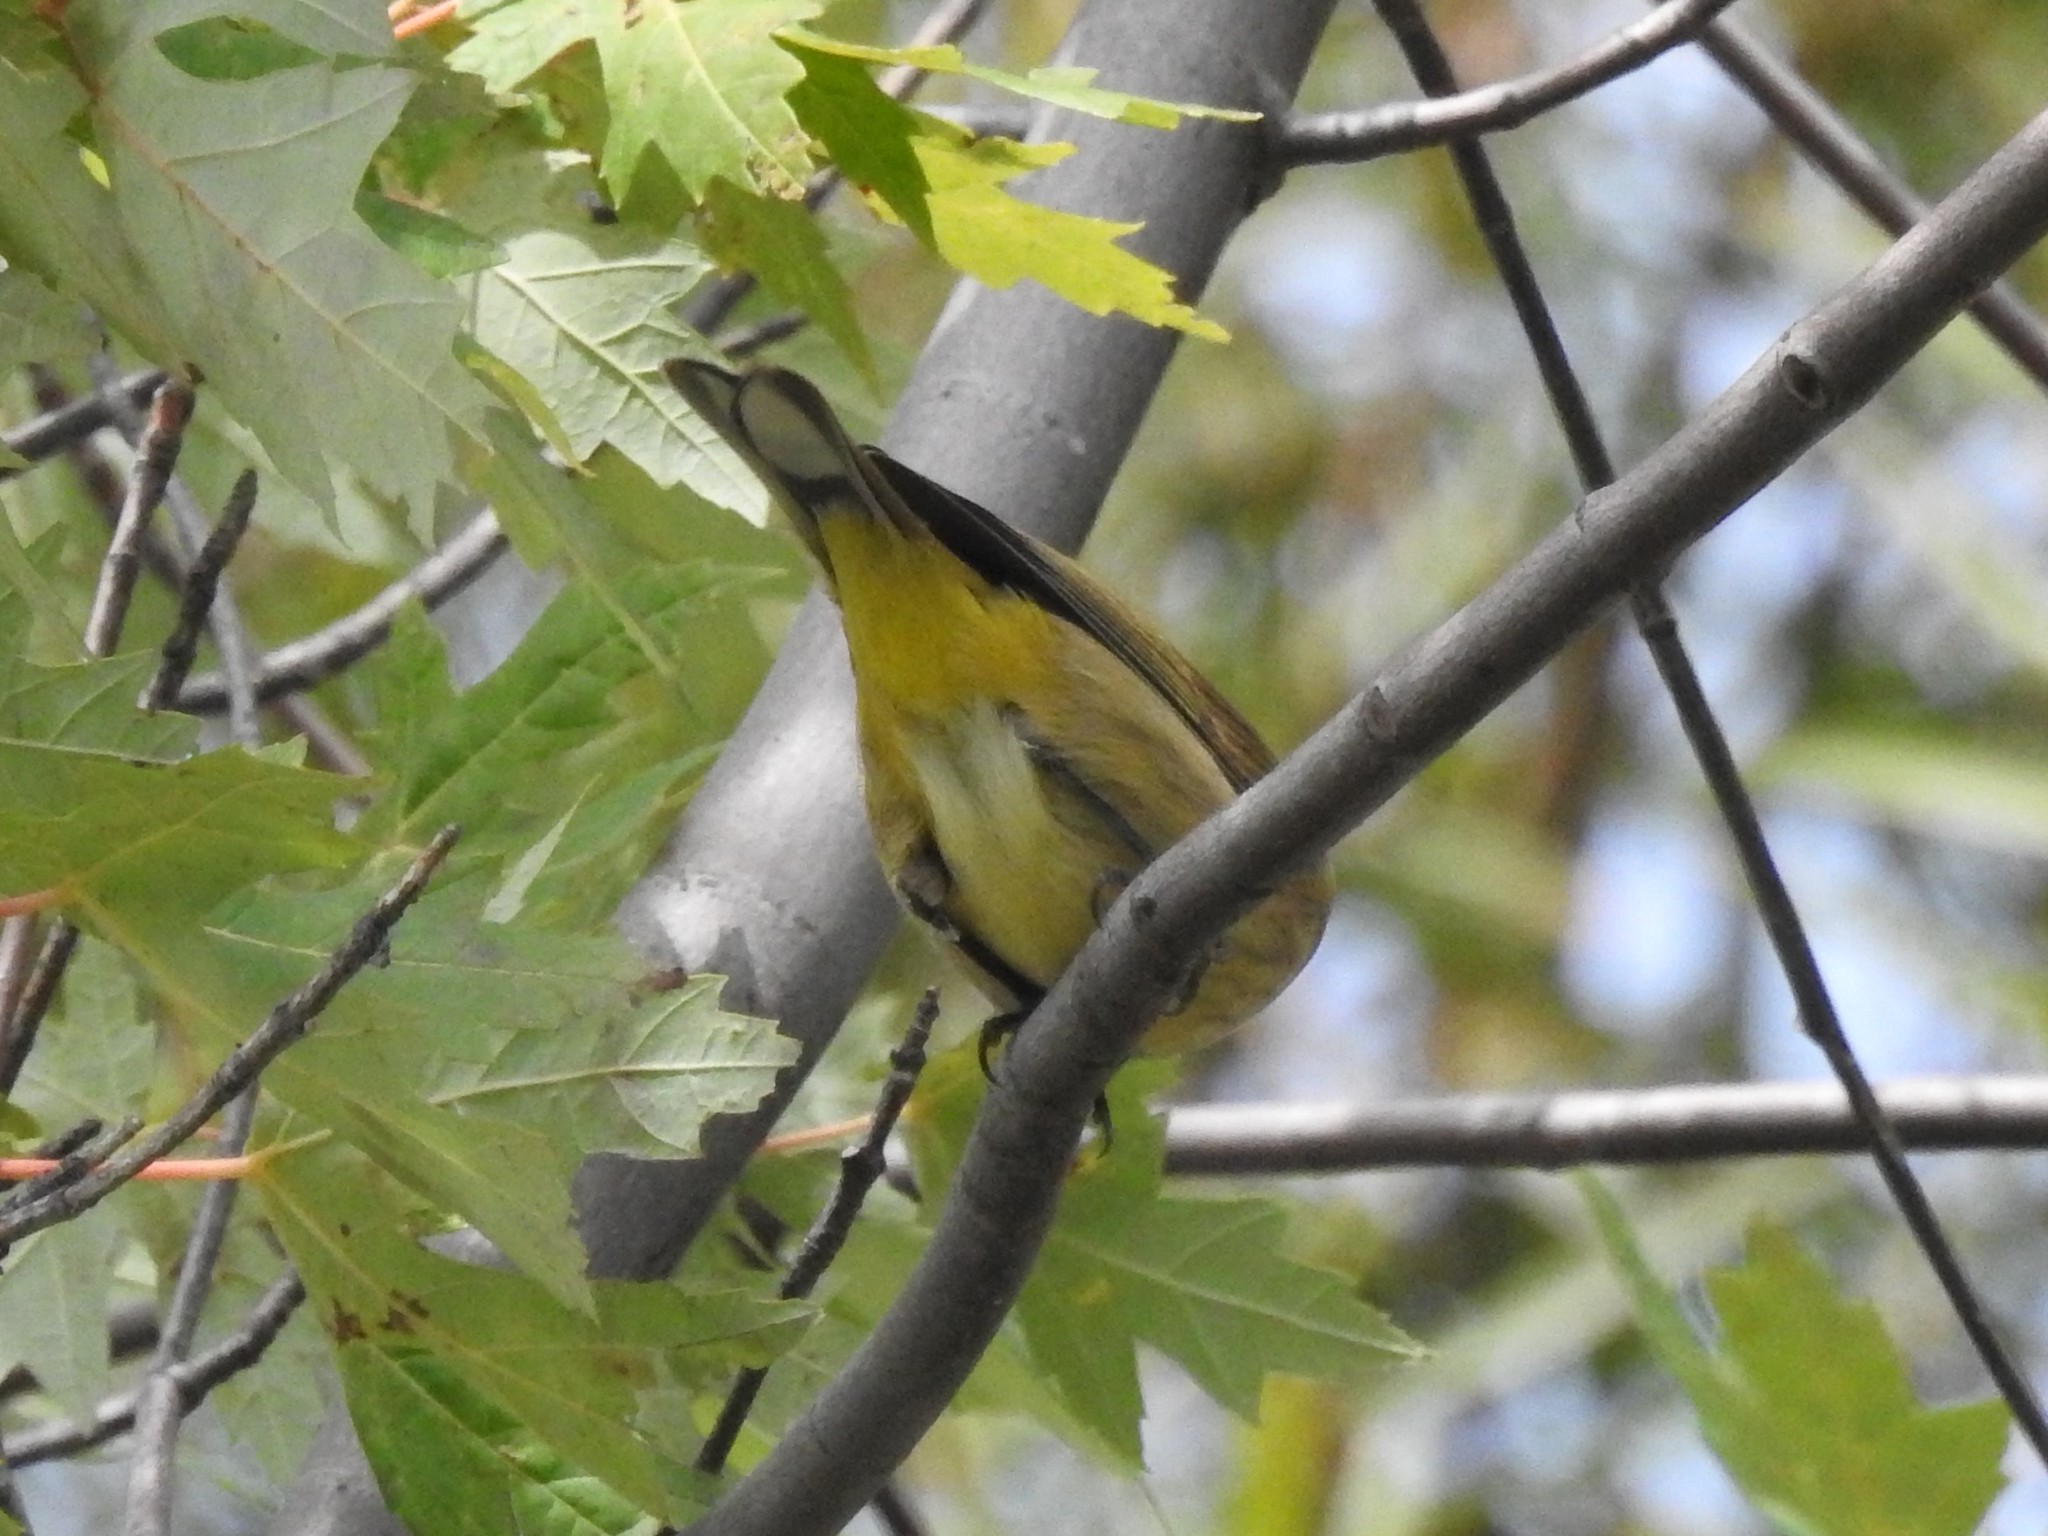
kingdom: Animalia
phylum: Chordata
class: Aves
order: Passeriformes
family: Parulidae
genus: Setophaga
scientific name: Setophaga palmarum
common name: Palm warbler
